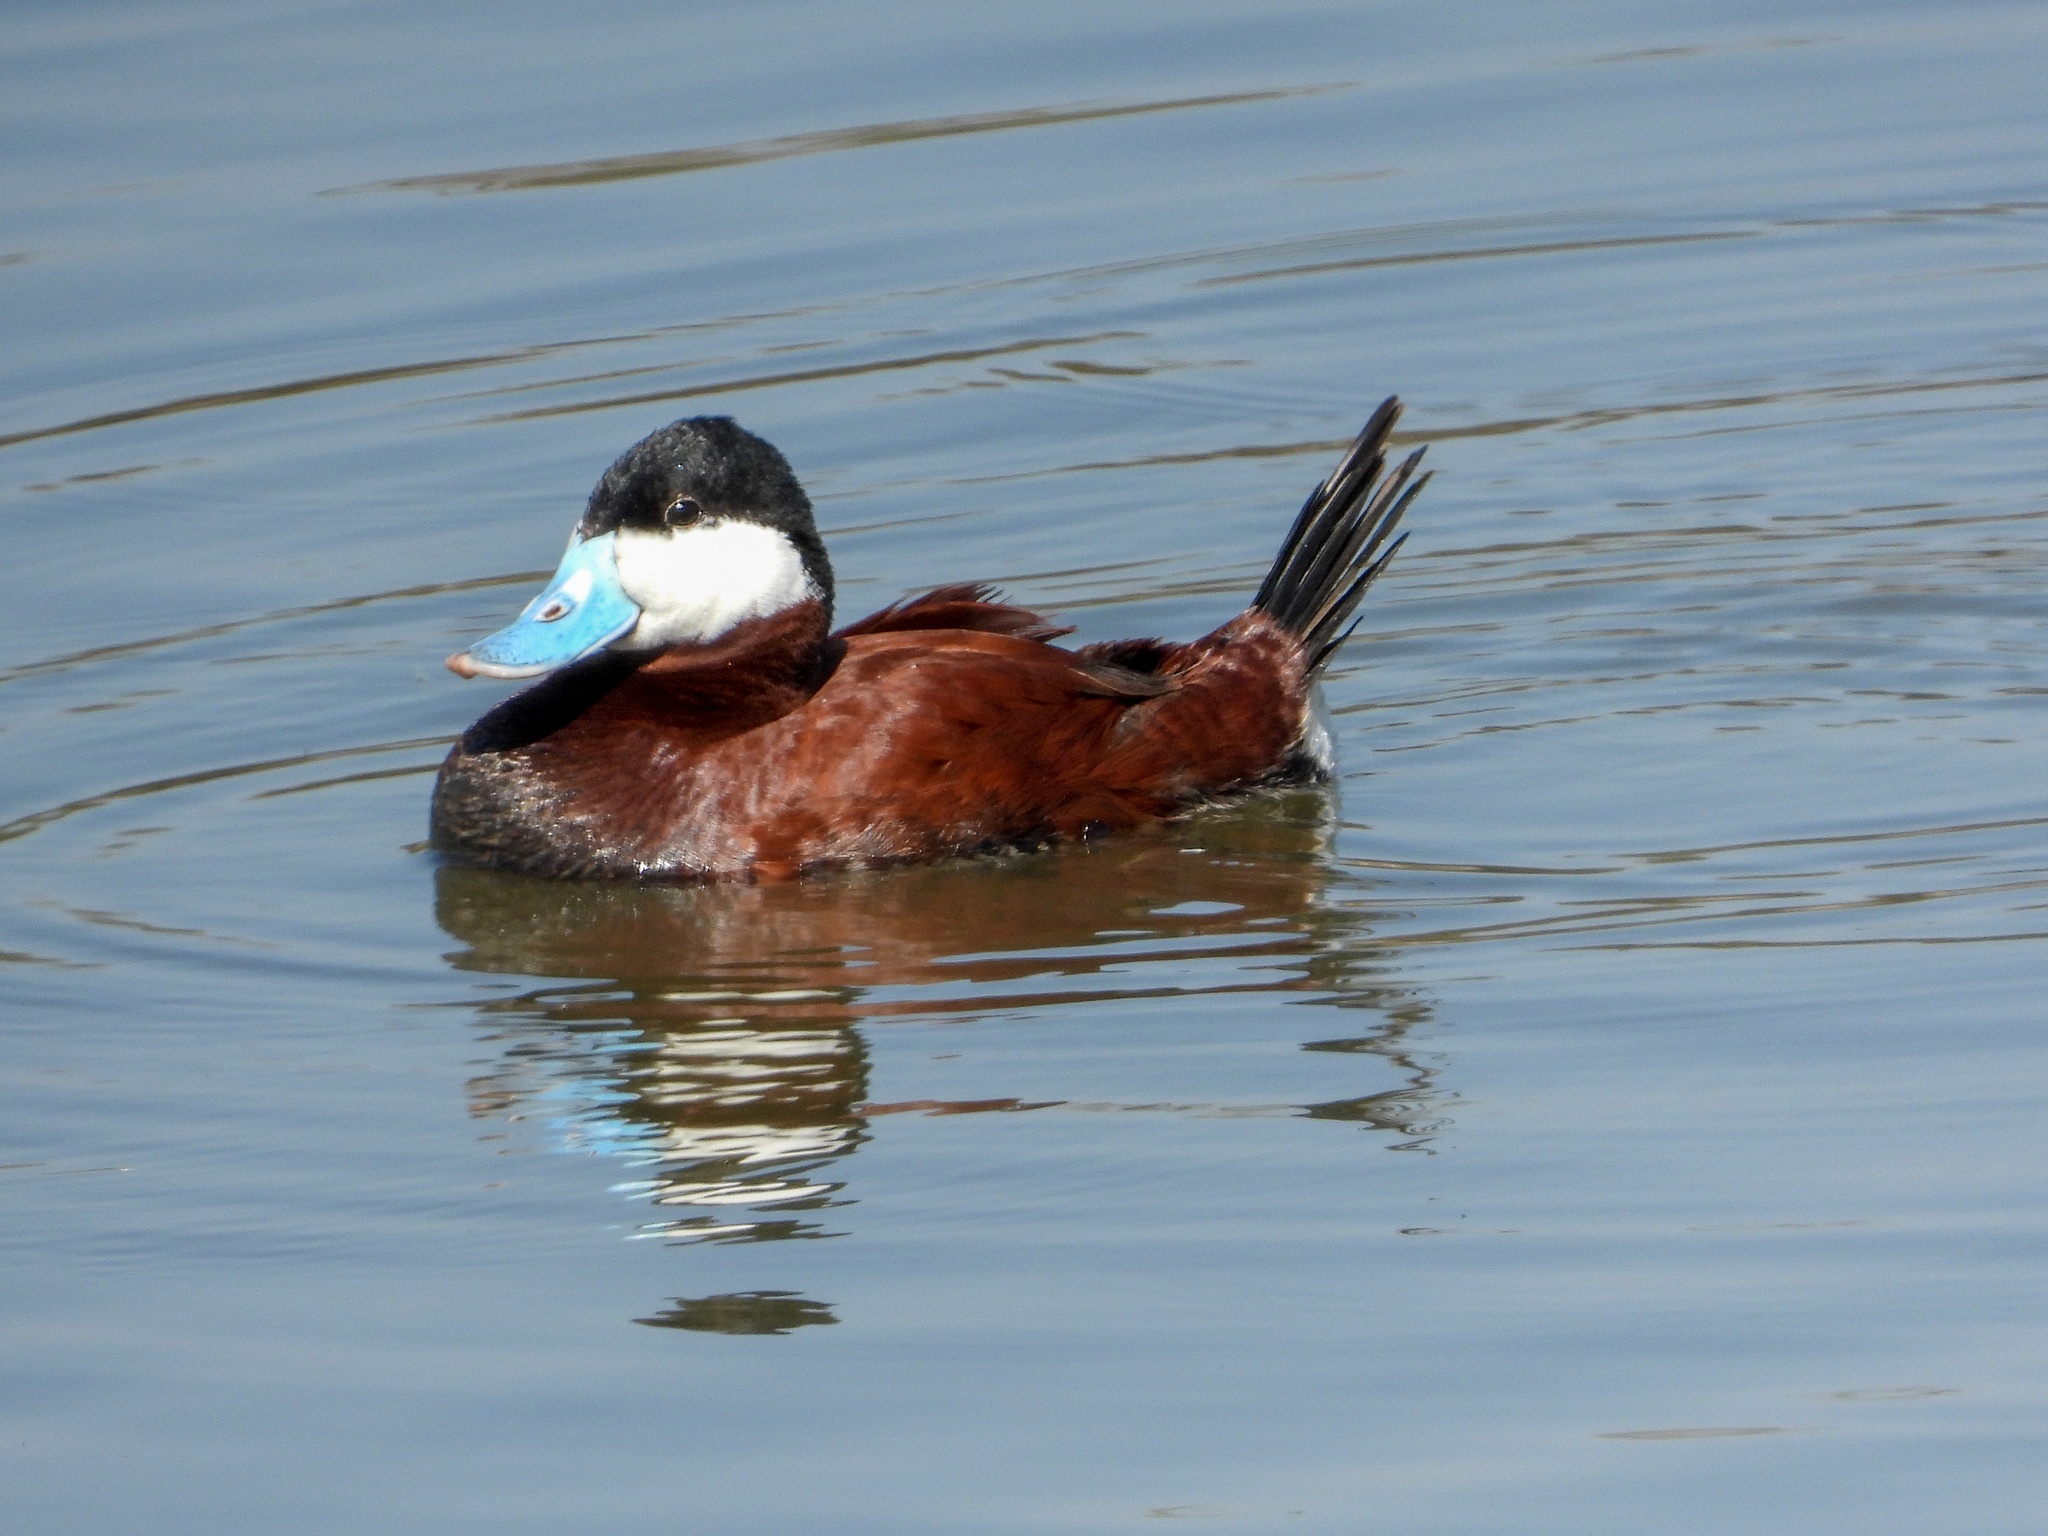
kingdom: Animalia
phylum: Chordata
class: Aves
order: Anseriformes
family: Anatidae
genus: Oxyura
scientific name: Oxyura jamaicensis
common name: Ruddy duck
